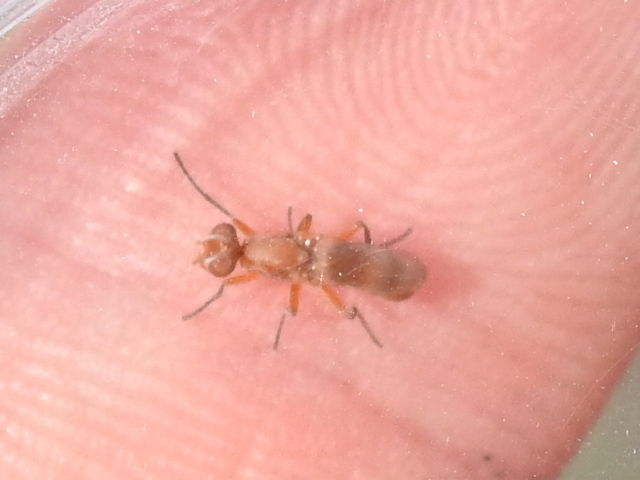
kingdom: Animalia
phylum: Arthropoda
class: Insecta
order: Diptera
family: Ulidiidae
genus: Zacompsia
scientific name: Zacompsia fulva
